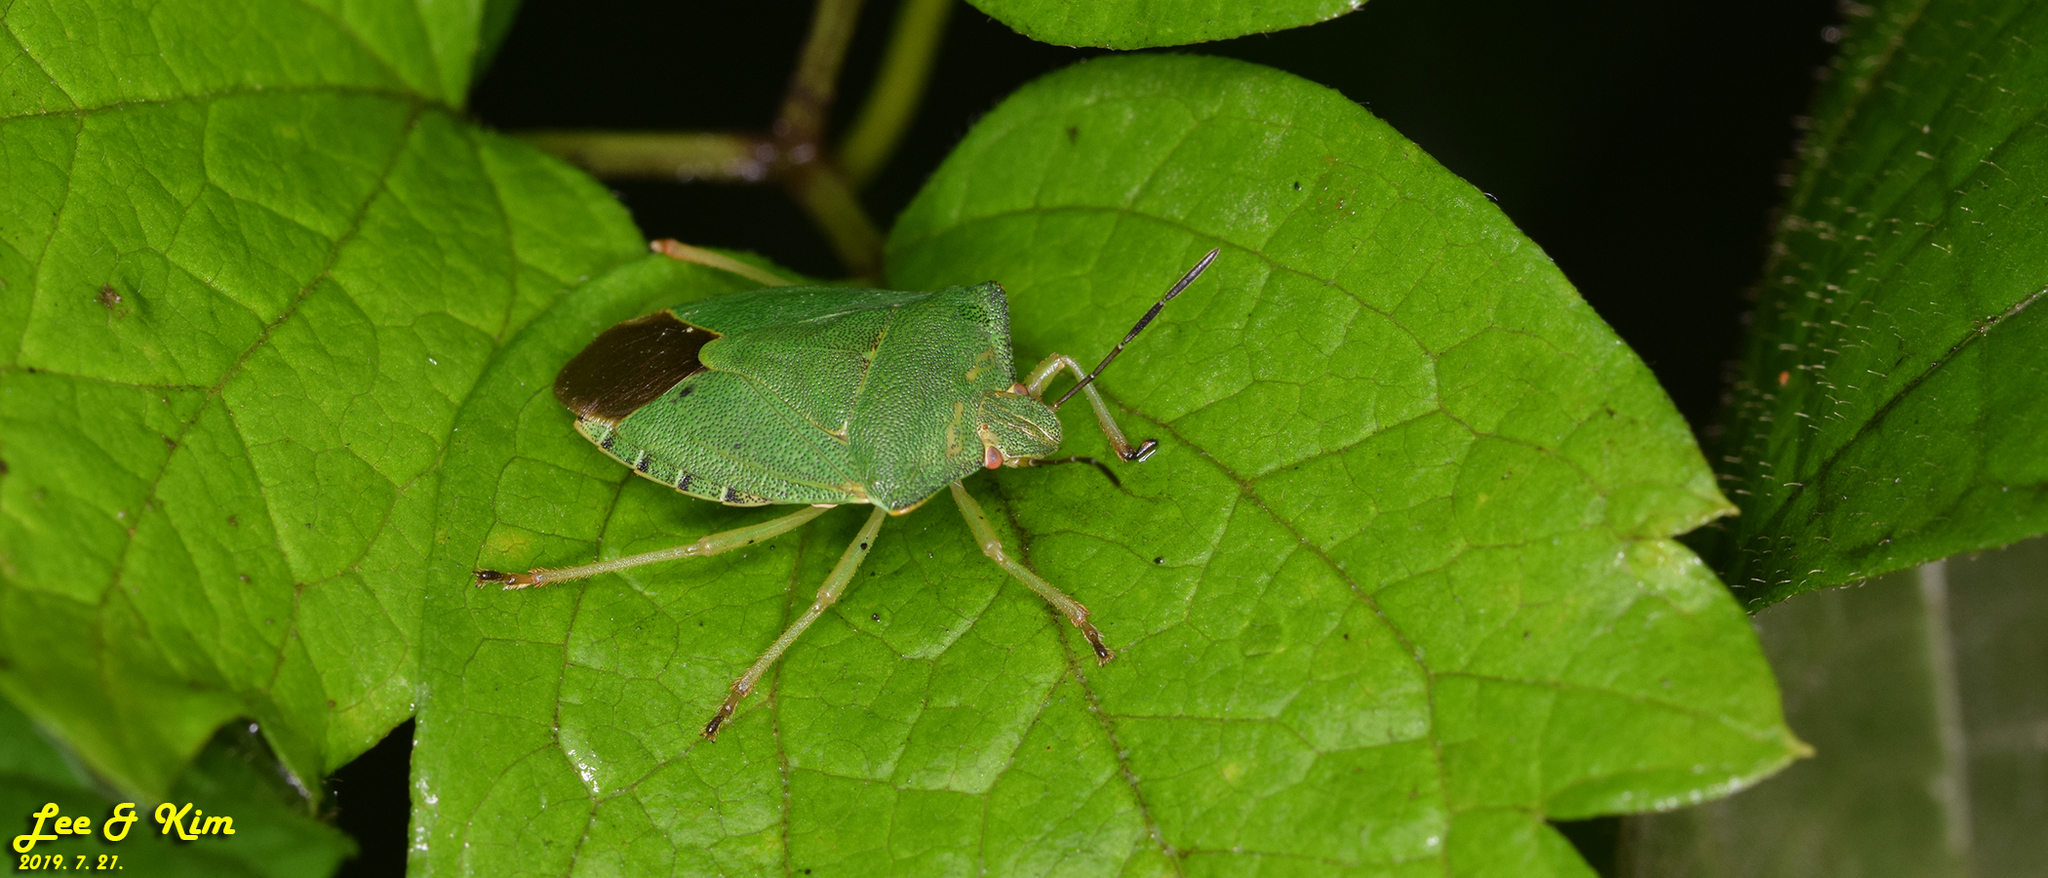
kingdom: Animalia
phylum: Arthropoda
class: Insecta
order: Hemiptera
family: Pentatomidae
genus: Palomena
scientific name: Palomena
